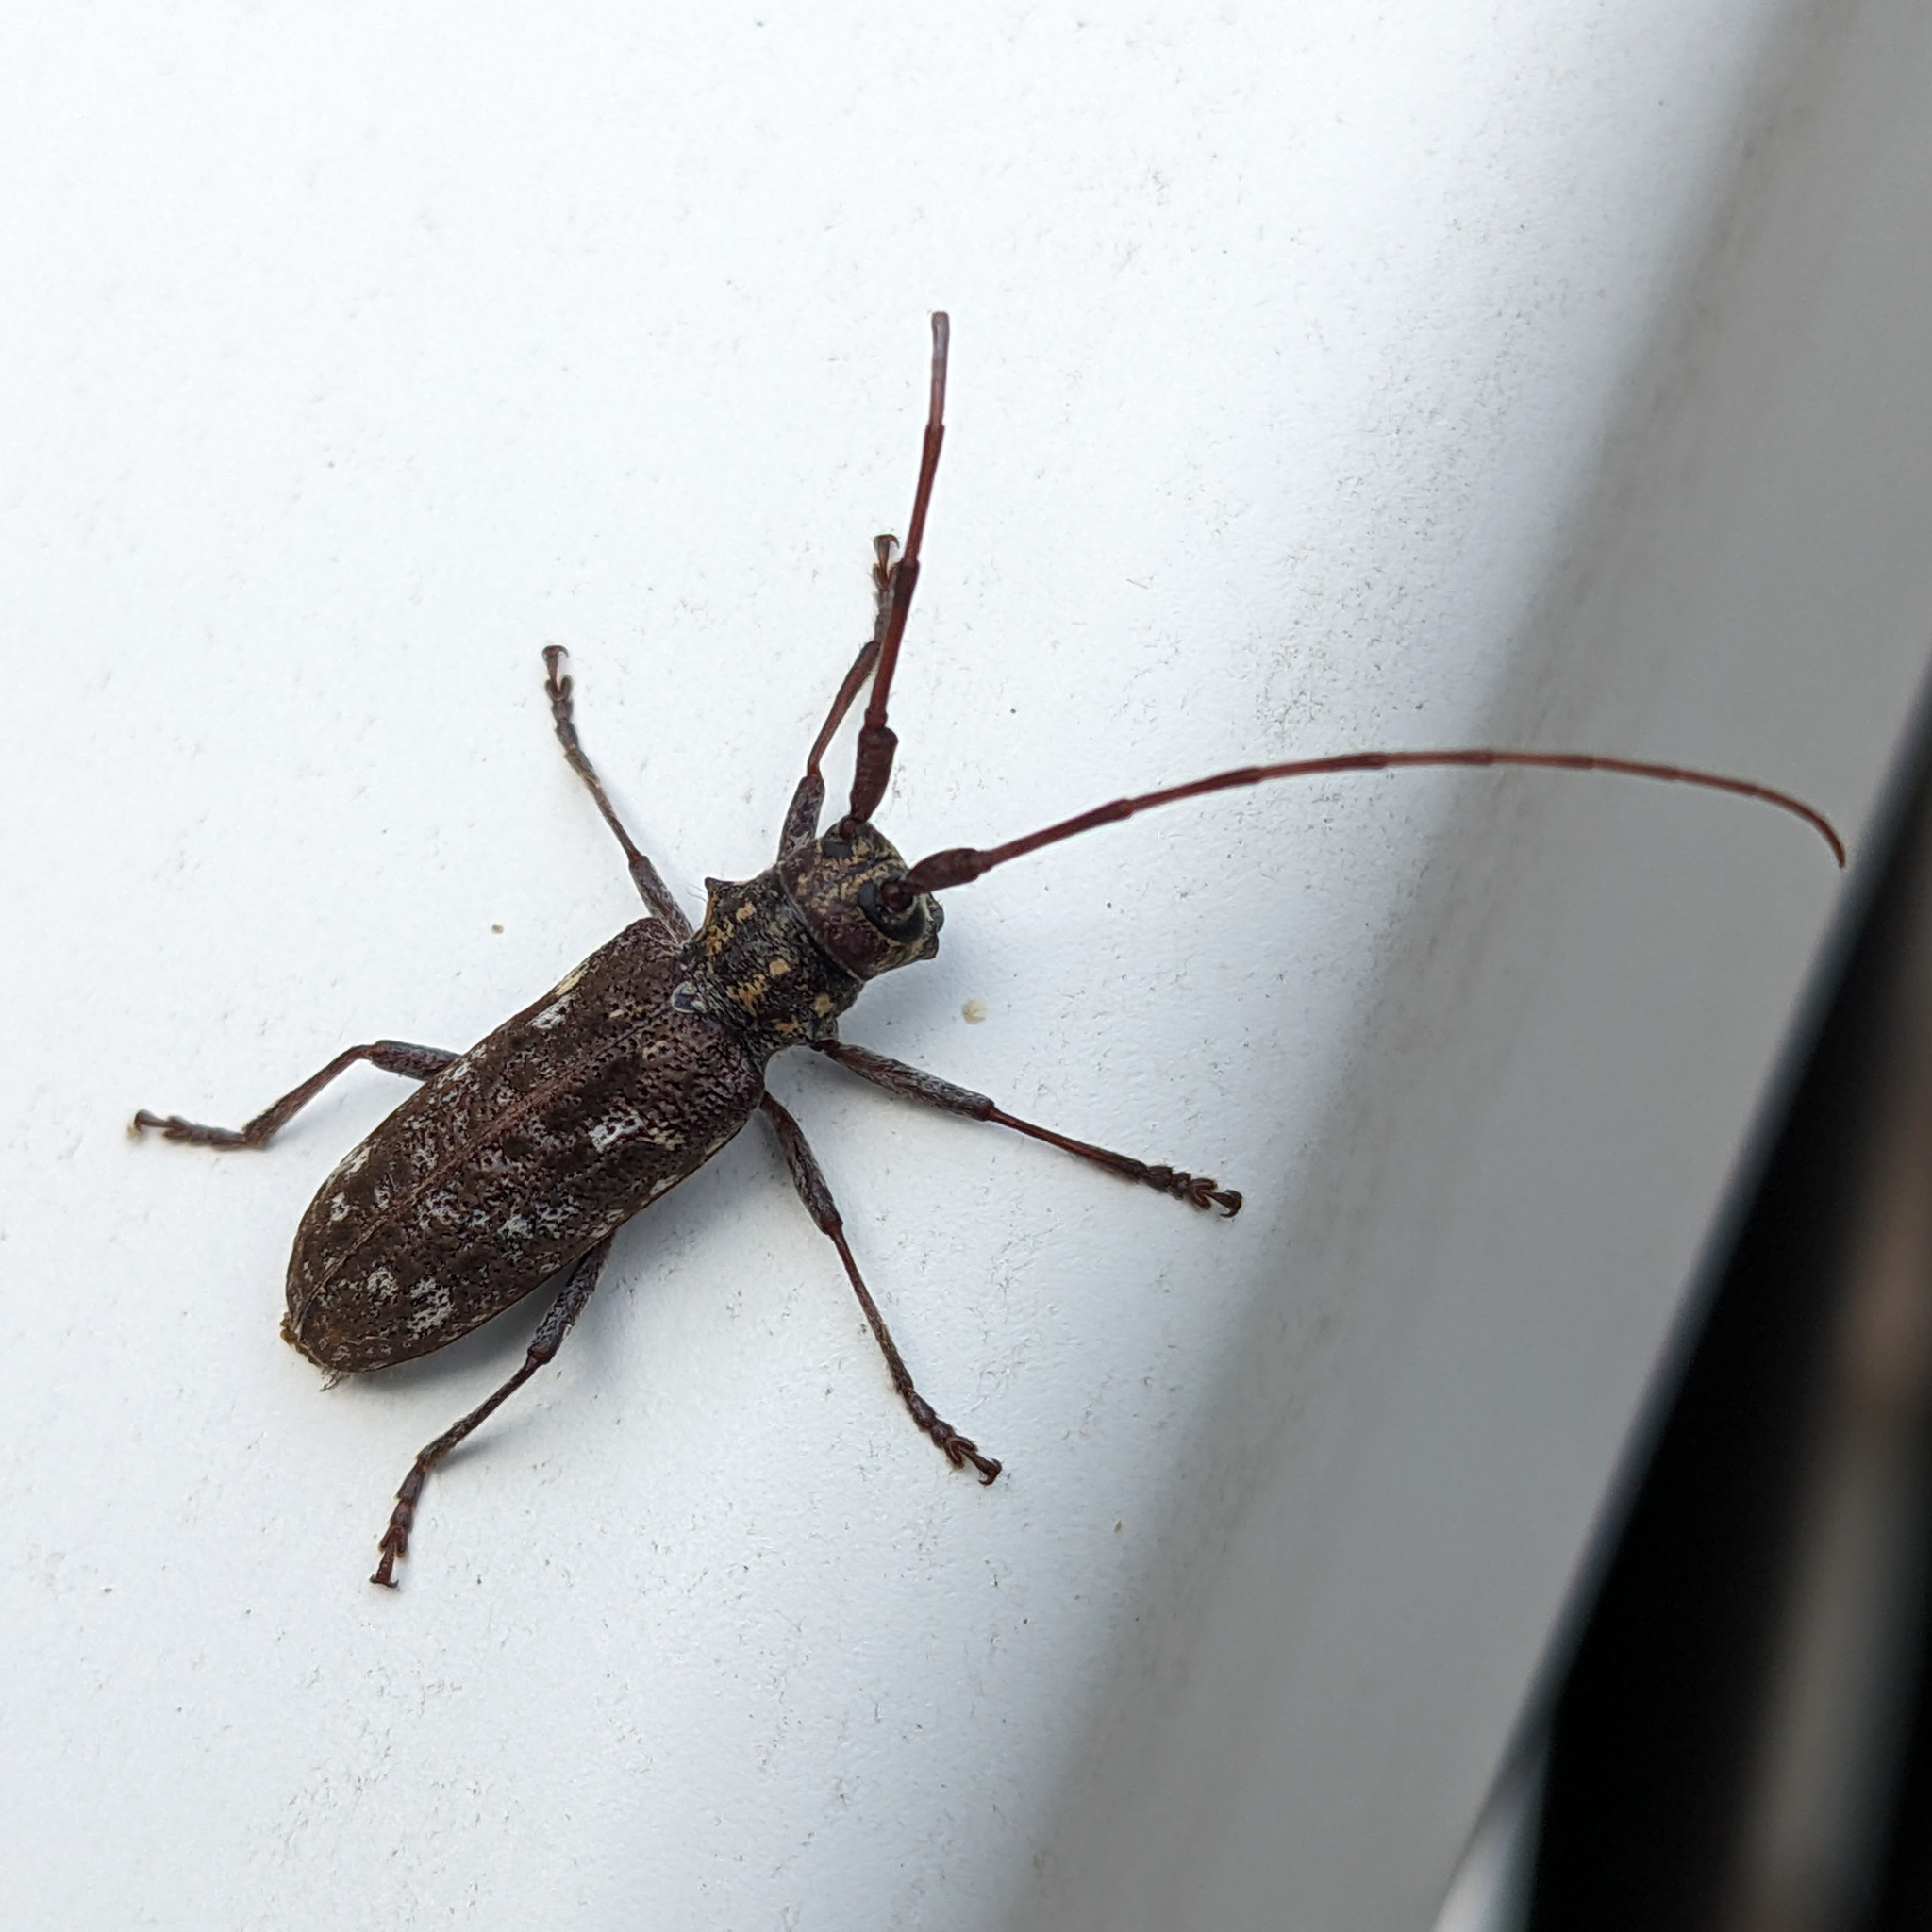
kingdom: Animalia
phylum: Arthropoda
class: Insecta
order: Coleoptera
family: Cerambycidae
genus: Monochamus
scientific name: Monochamus carolinensis
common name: Carolina pine sawyer
